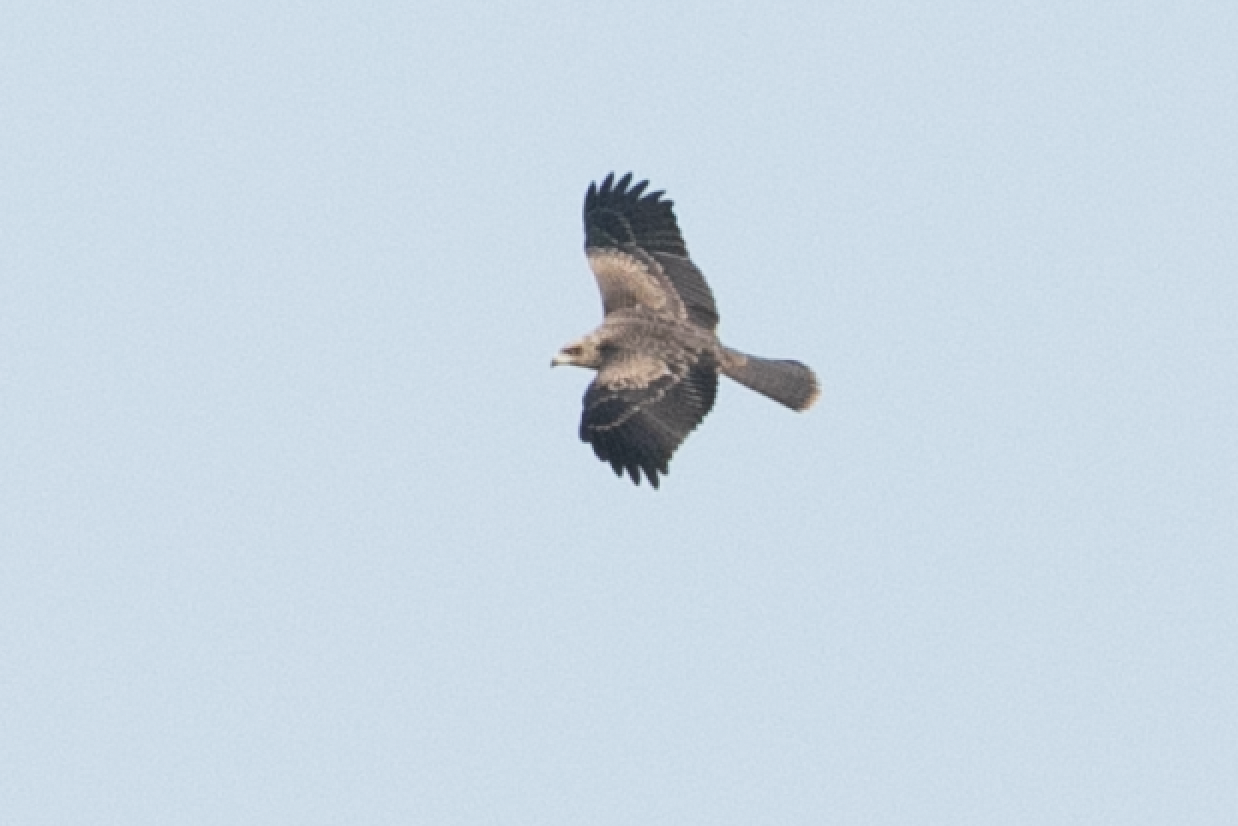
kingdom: Animalia
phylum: Chordata
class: Aves
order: Accipitriformes
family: Accipitridae
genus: Milvus
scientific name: Milvus migrans
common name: Black kite
